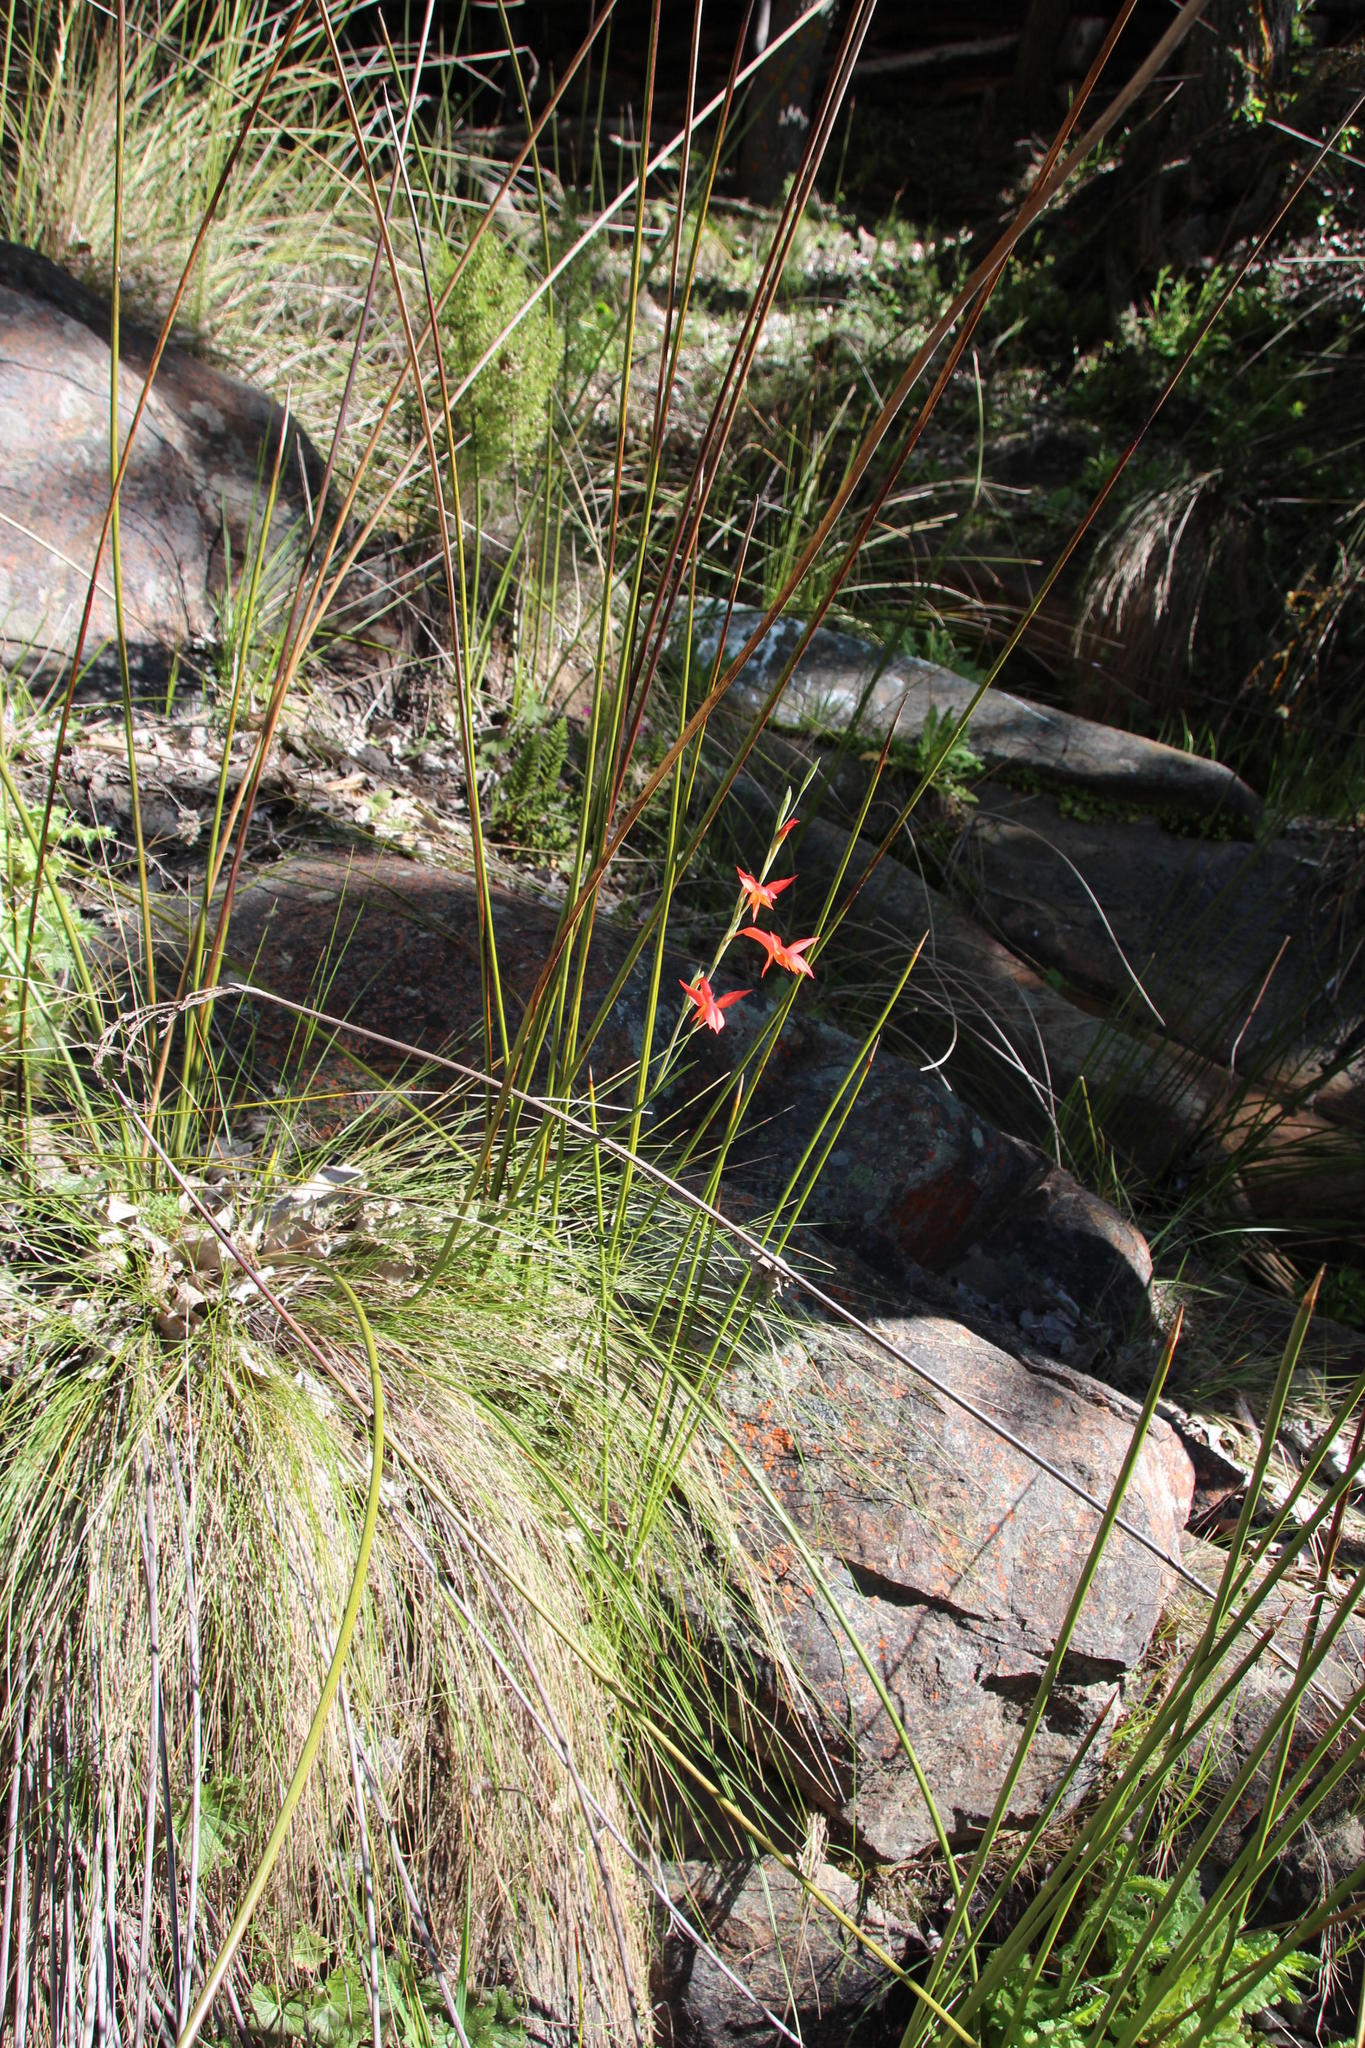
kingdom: Plantae
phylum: Tracheophyta
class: Liliopsida
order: Asparagales
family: Iridaceae
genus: Gladiolus
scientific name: Gladiolus quadrangularis
